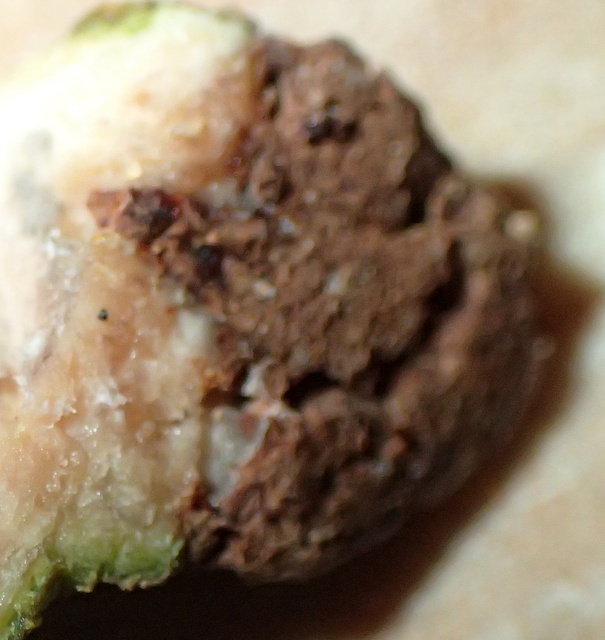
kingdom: Animalia
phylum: Arthropoda
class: Insecta
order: Hymenoptera
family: Cynipidae
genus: Callirhytis
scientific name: Callirhytis
